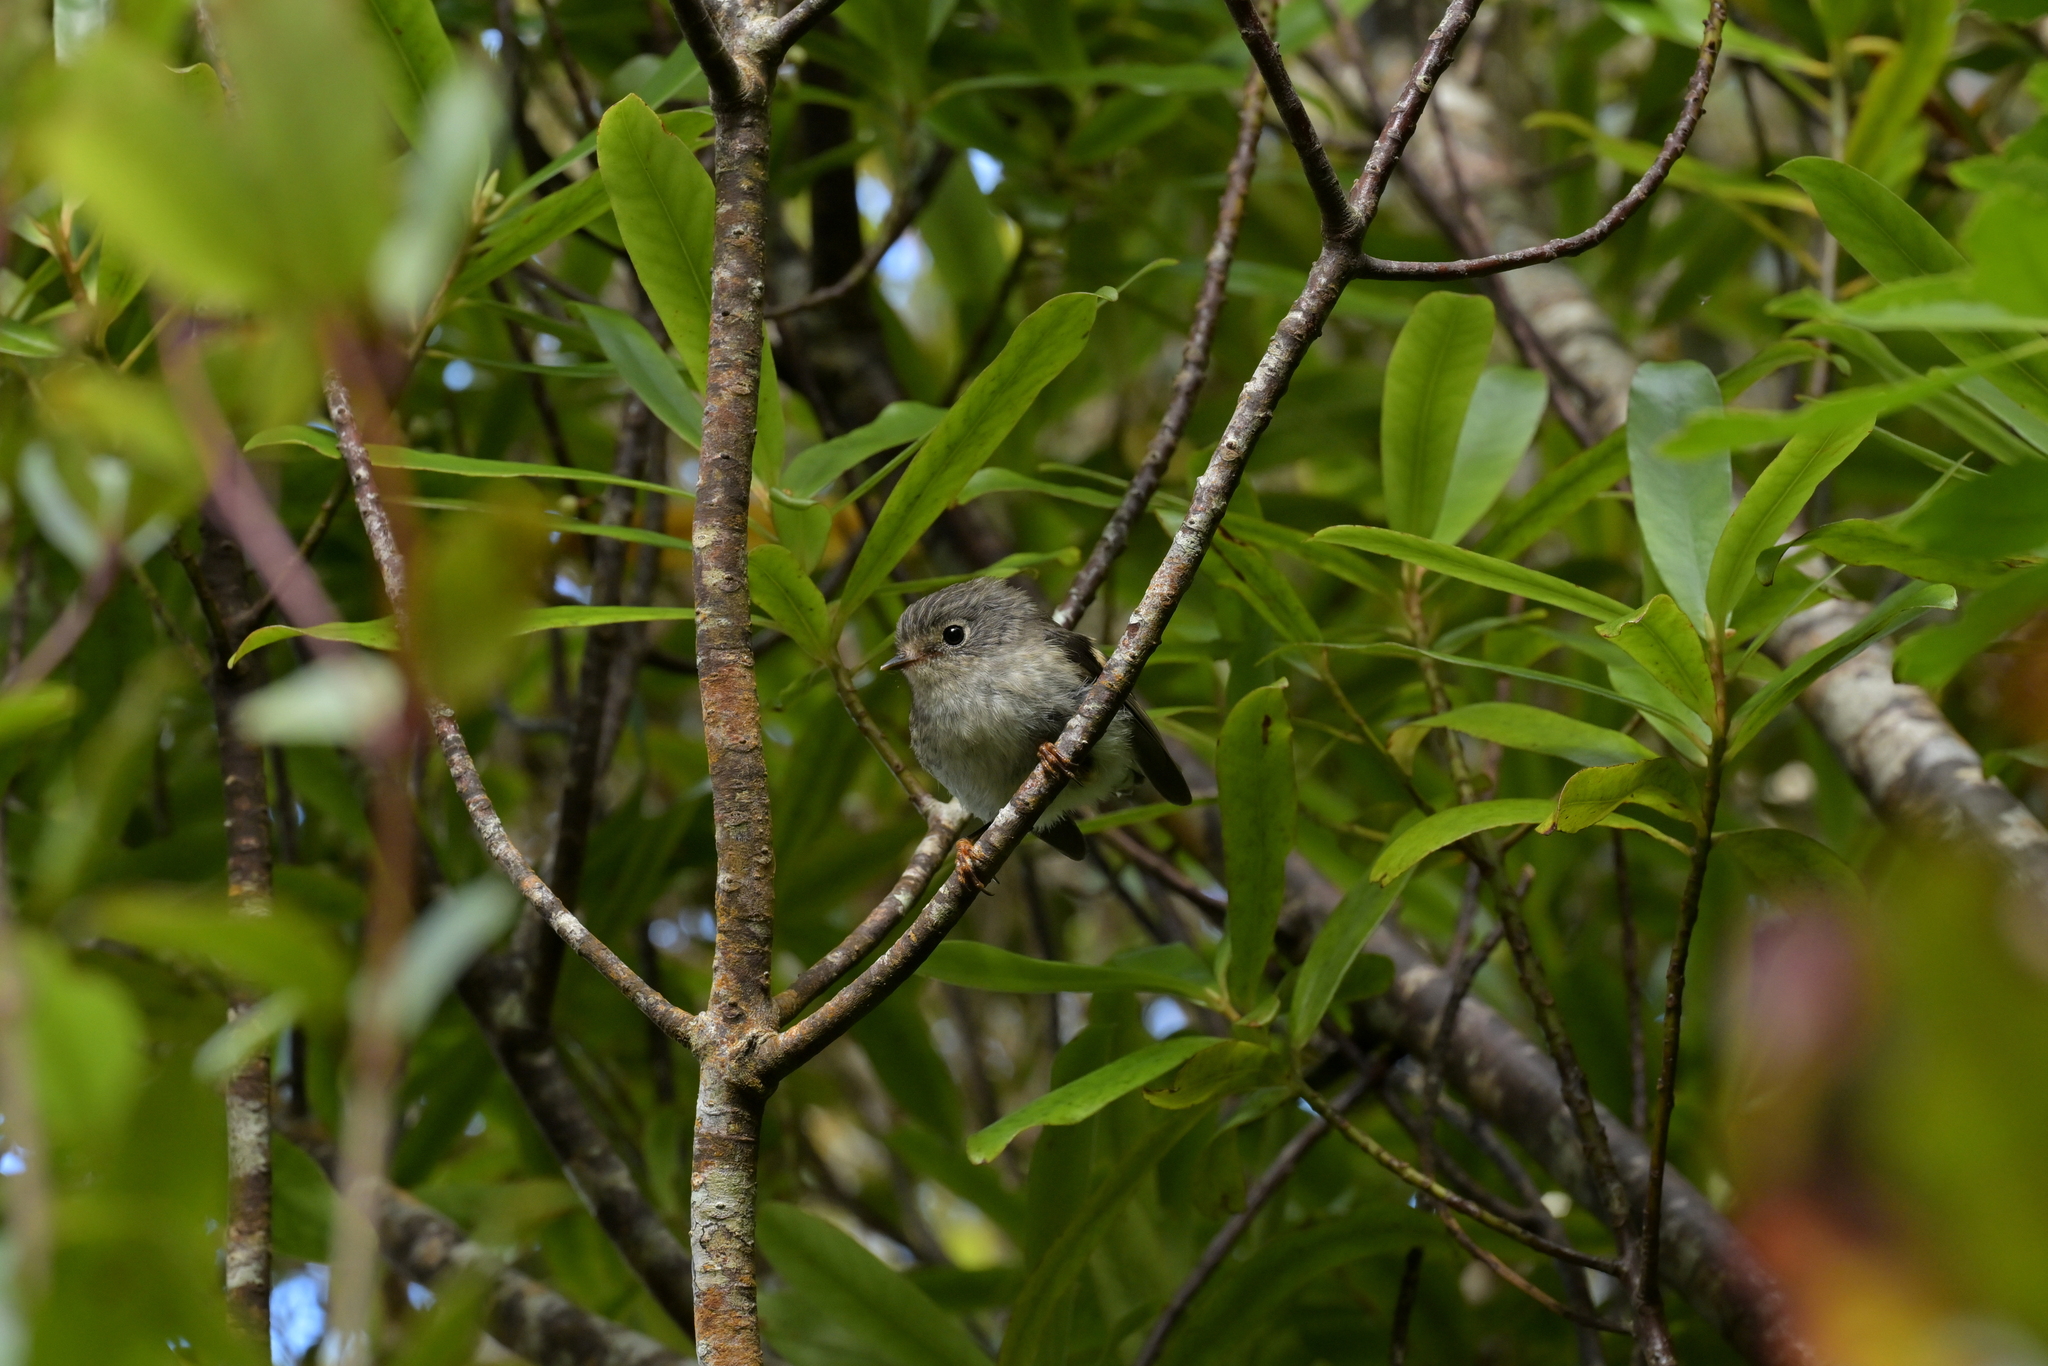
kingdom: Animalia
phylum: Chordata
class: Aves
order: Passeriformes
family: Petroicidae
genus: Petroica
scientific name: Petroica macrocephala
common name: Tomtit
